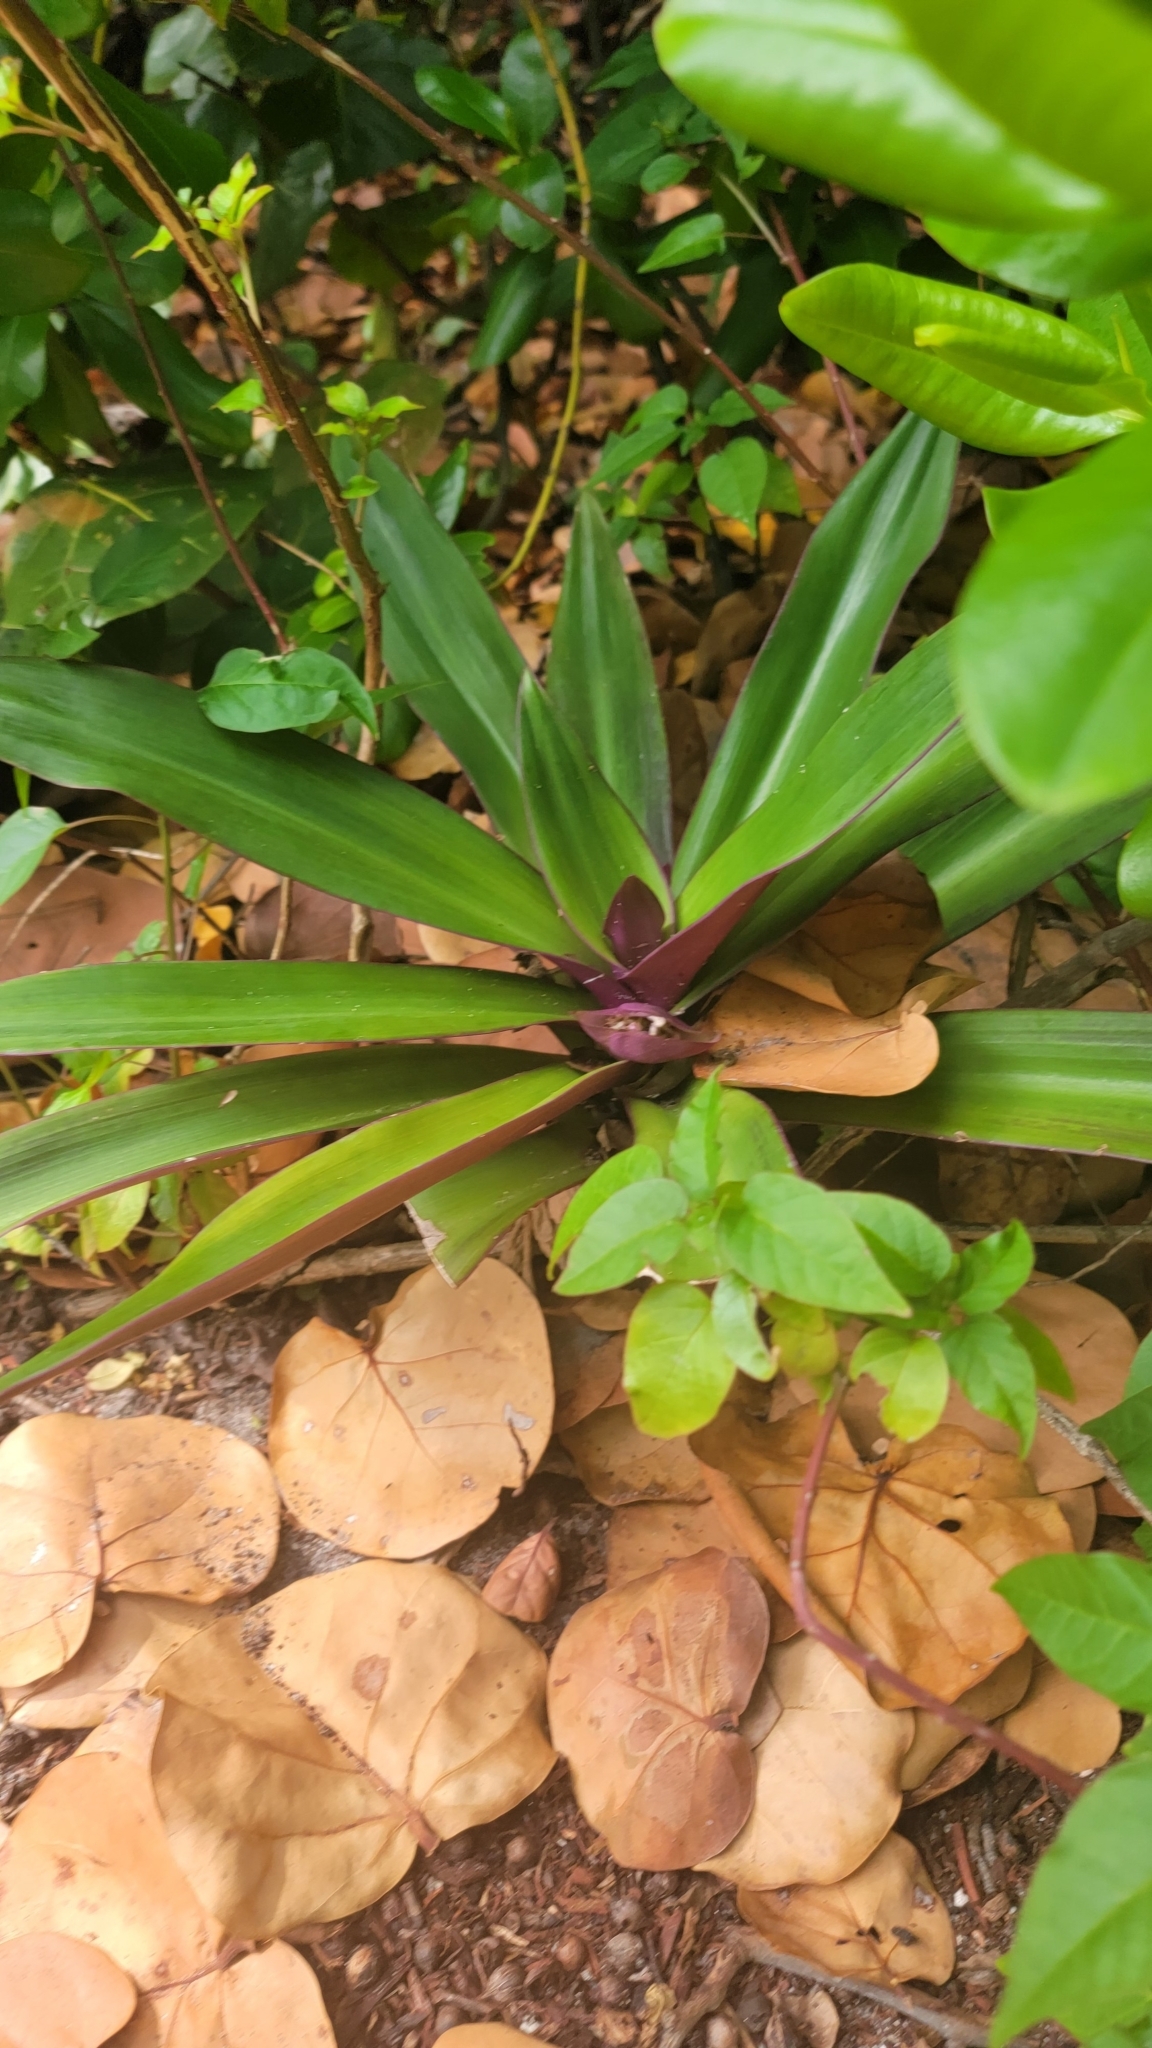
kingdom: Plantae
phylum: Tracheophyta
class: Liliopsida
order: Commelinales
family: Commelinaceae
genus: Tradescantia
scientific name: Tradescantia spathacea
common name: Boatlily
